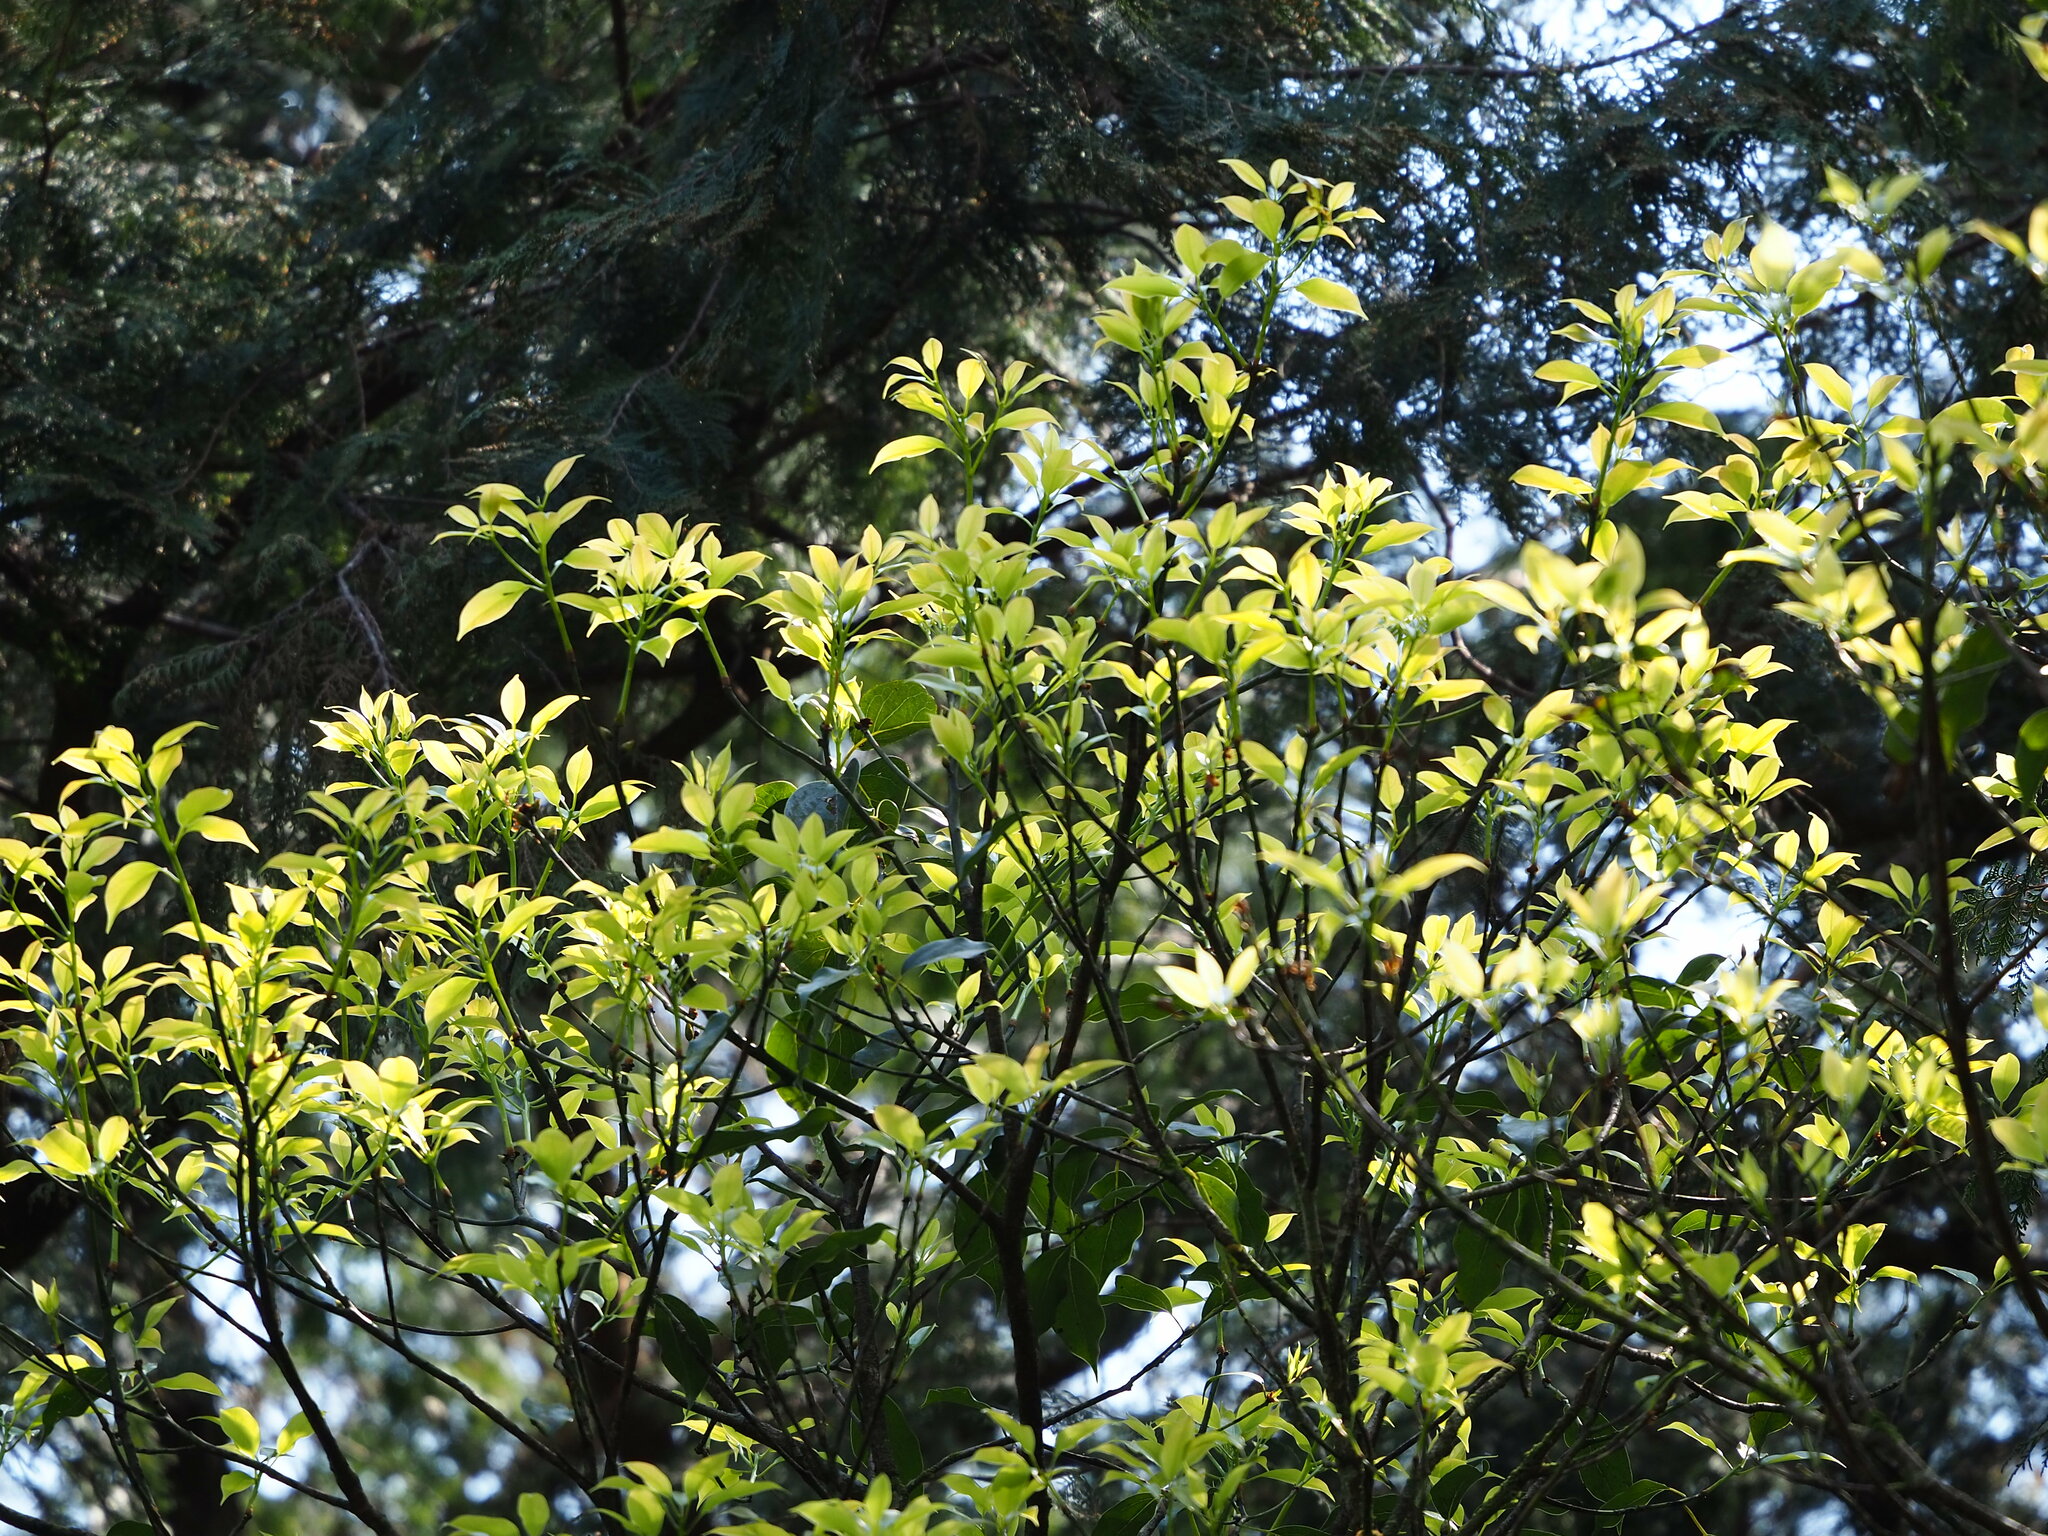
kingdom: Plantae
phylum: Tracheophyta
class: Magnoliopsida
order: Laurales
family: Lauraceae
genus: Cinnamomum
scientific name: Cinnamomum micranthum
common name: Chinese-sassafras
